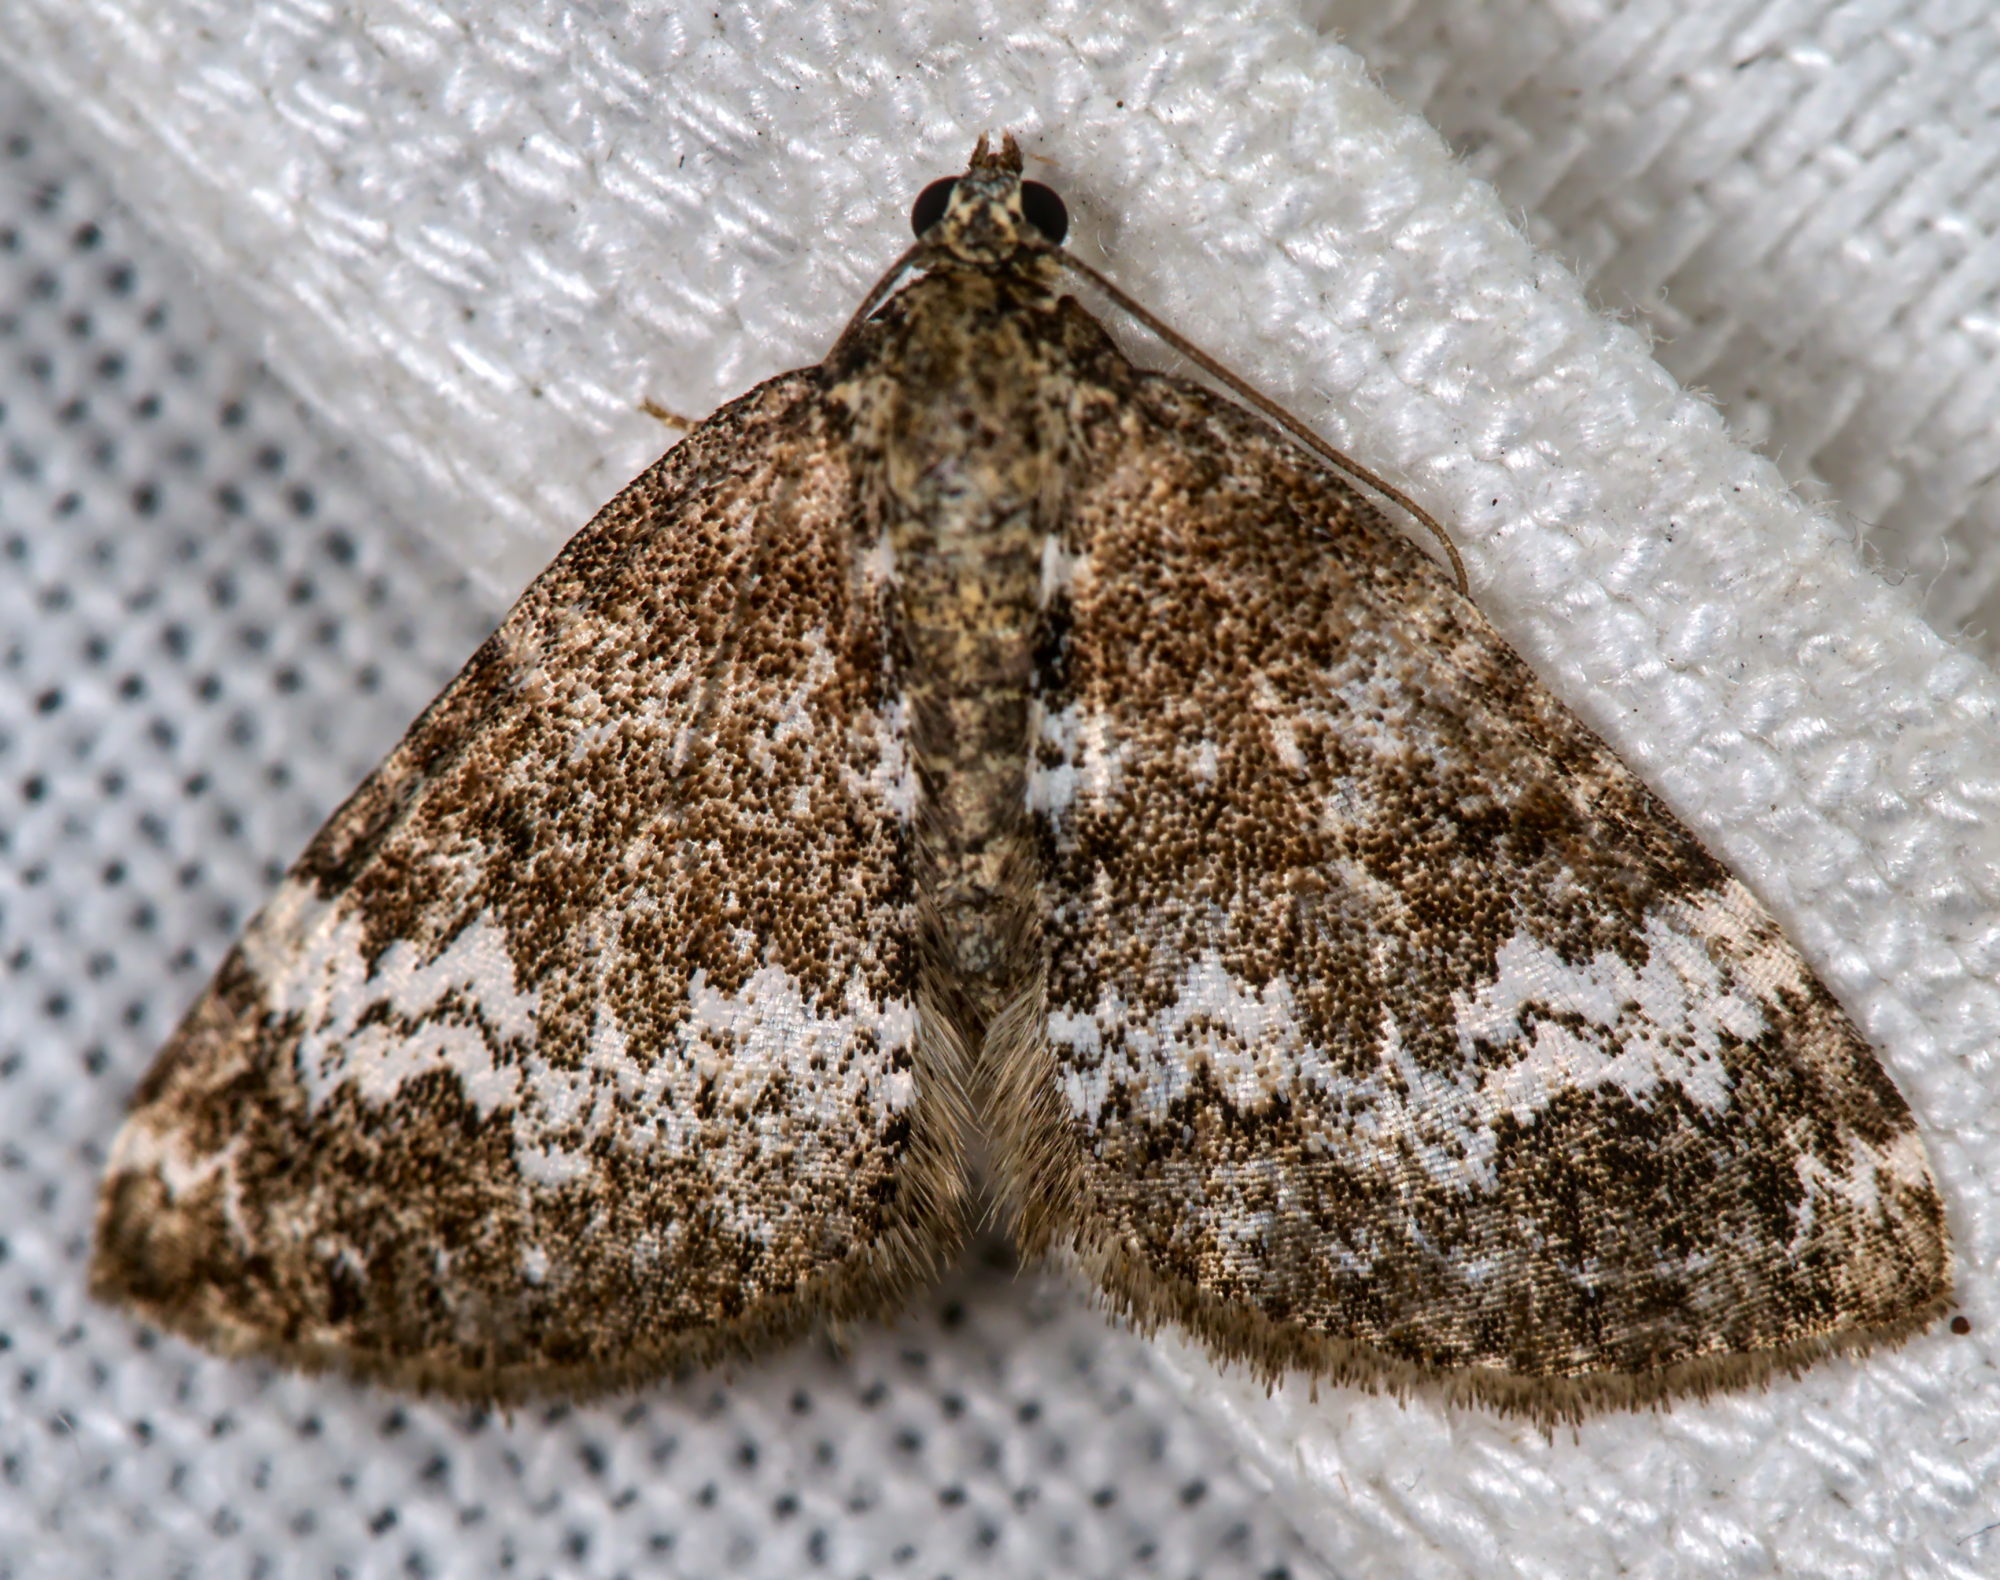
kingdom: Animalia
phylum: Arthropoda
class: Insecta
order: Lepidoptera
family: Geometridae
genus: Perizoma
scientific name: Perizoma alchemillata
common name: Small rivulet
